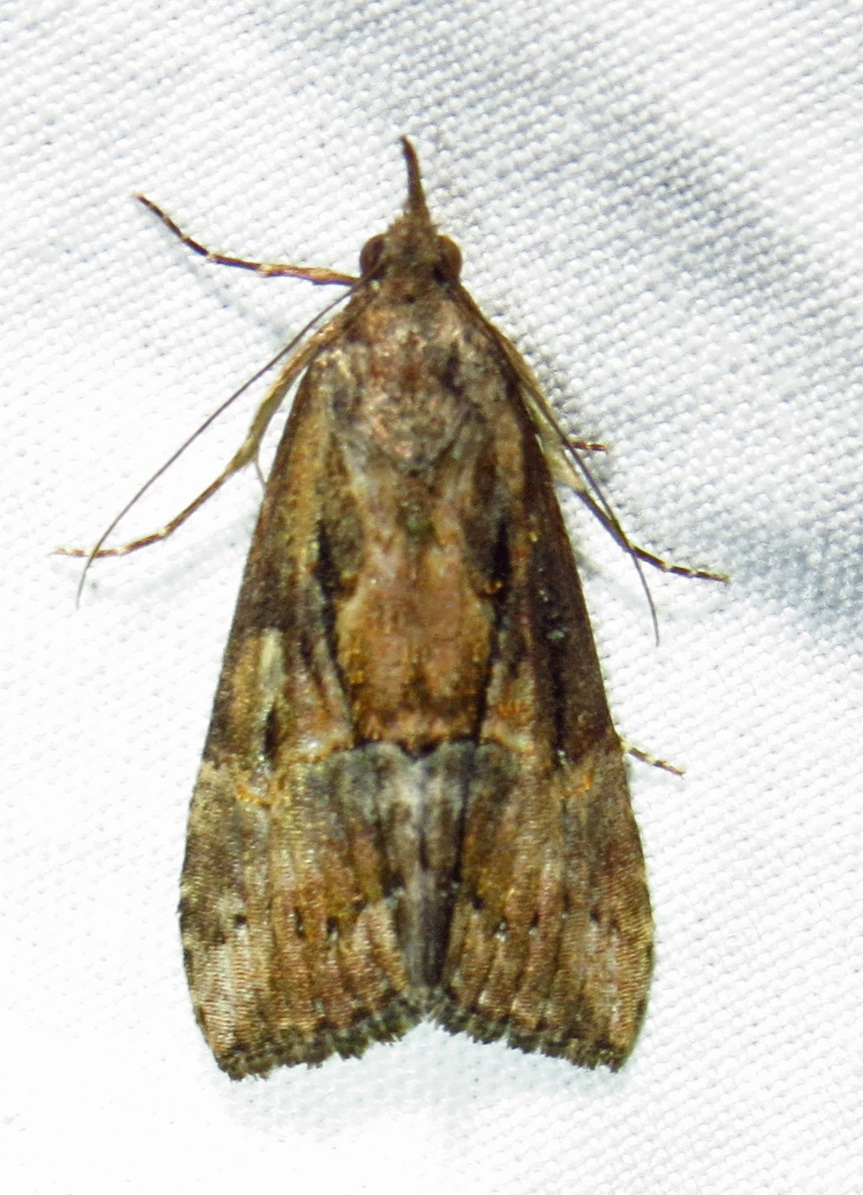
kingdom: Animalia
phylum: Arthropoda
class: Insecta
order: Lepidoptera
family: Erebidae
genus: Hypena
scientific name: Hypena scabra
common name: Green cloverworm
